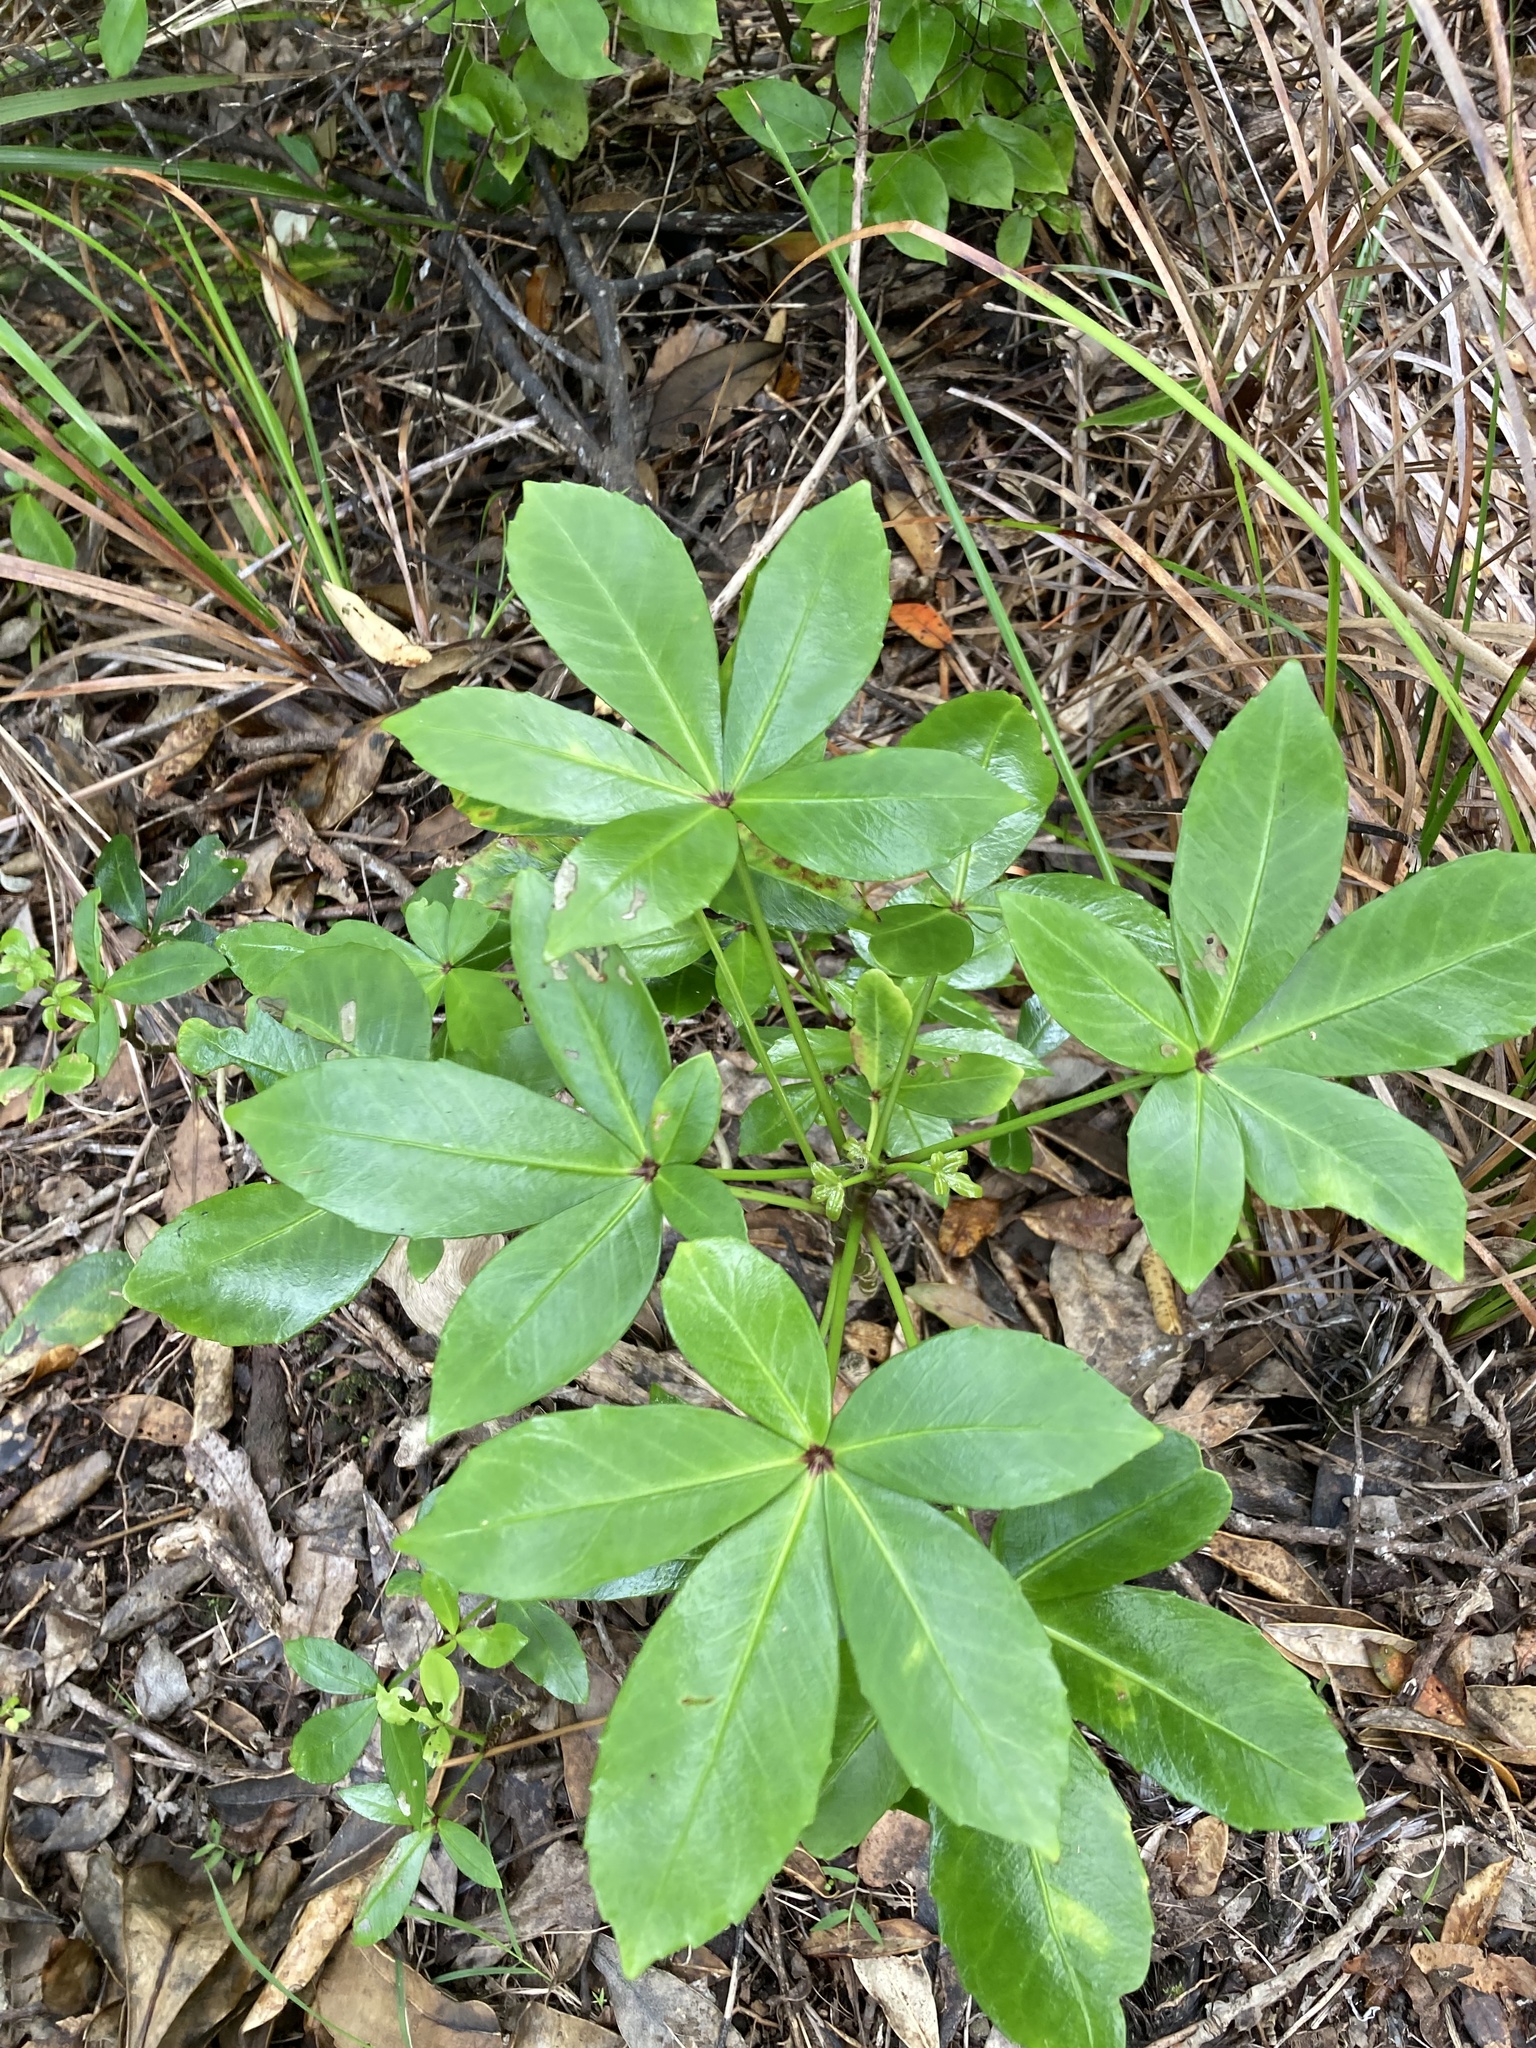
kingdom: Plantae
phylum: Tracheophyta
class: Magnoliopsida
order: Apiales
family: Araliaceae
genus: Pseudopanax
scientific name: Pseudopanax lessonii
